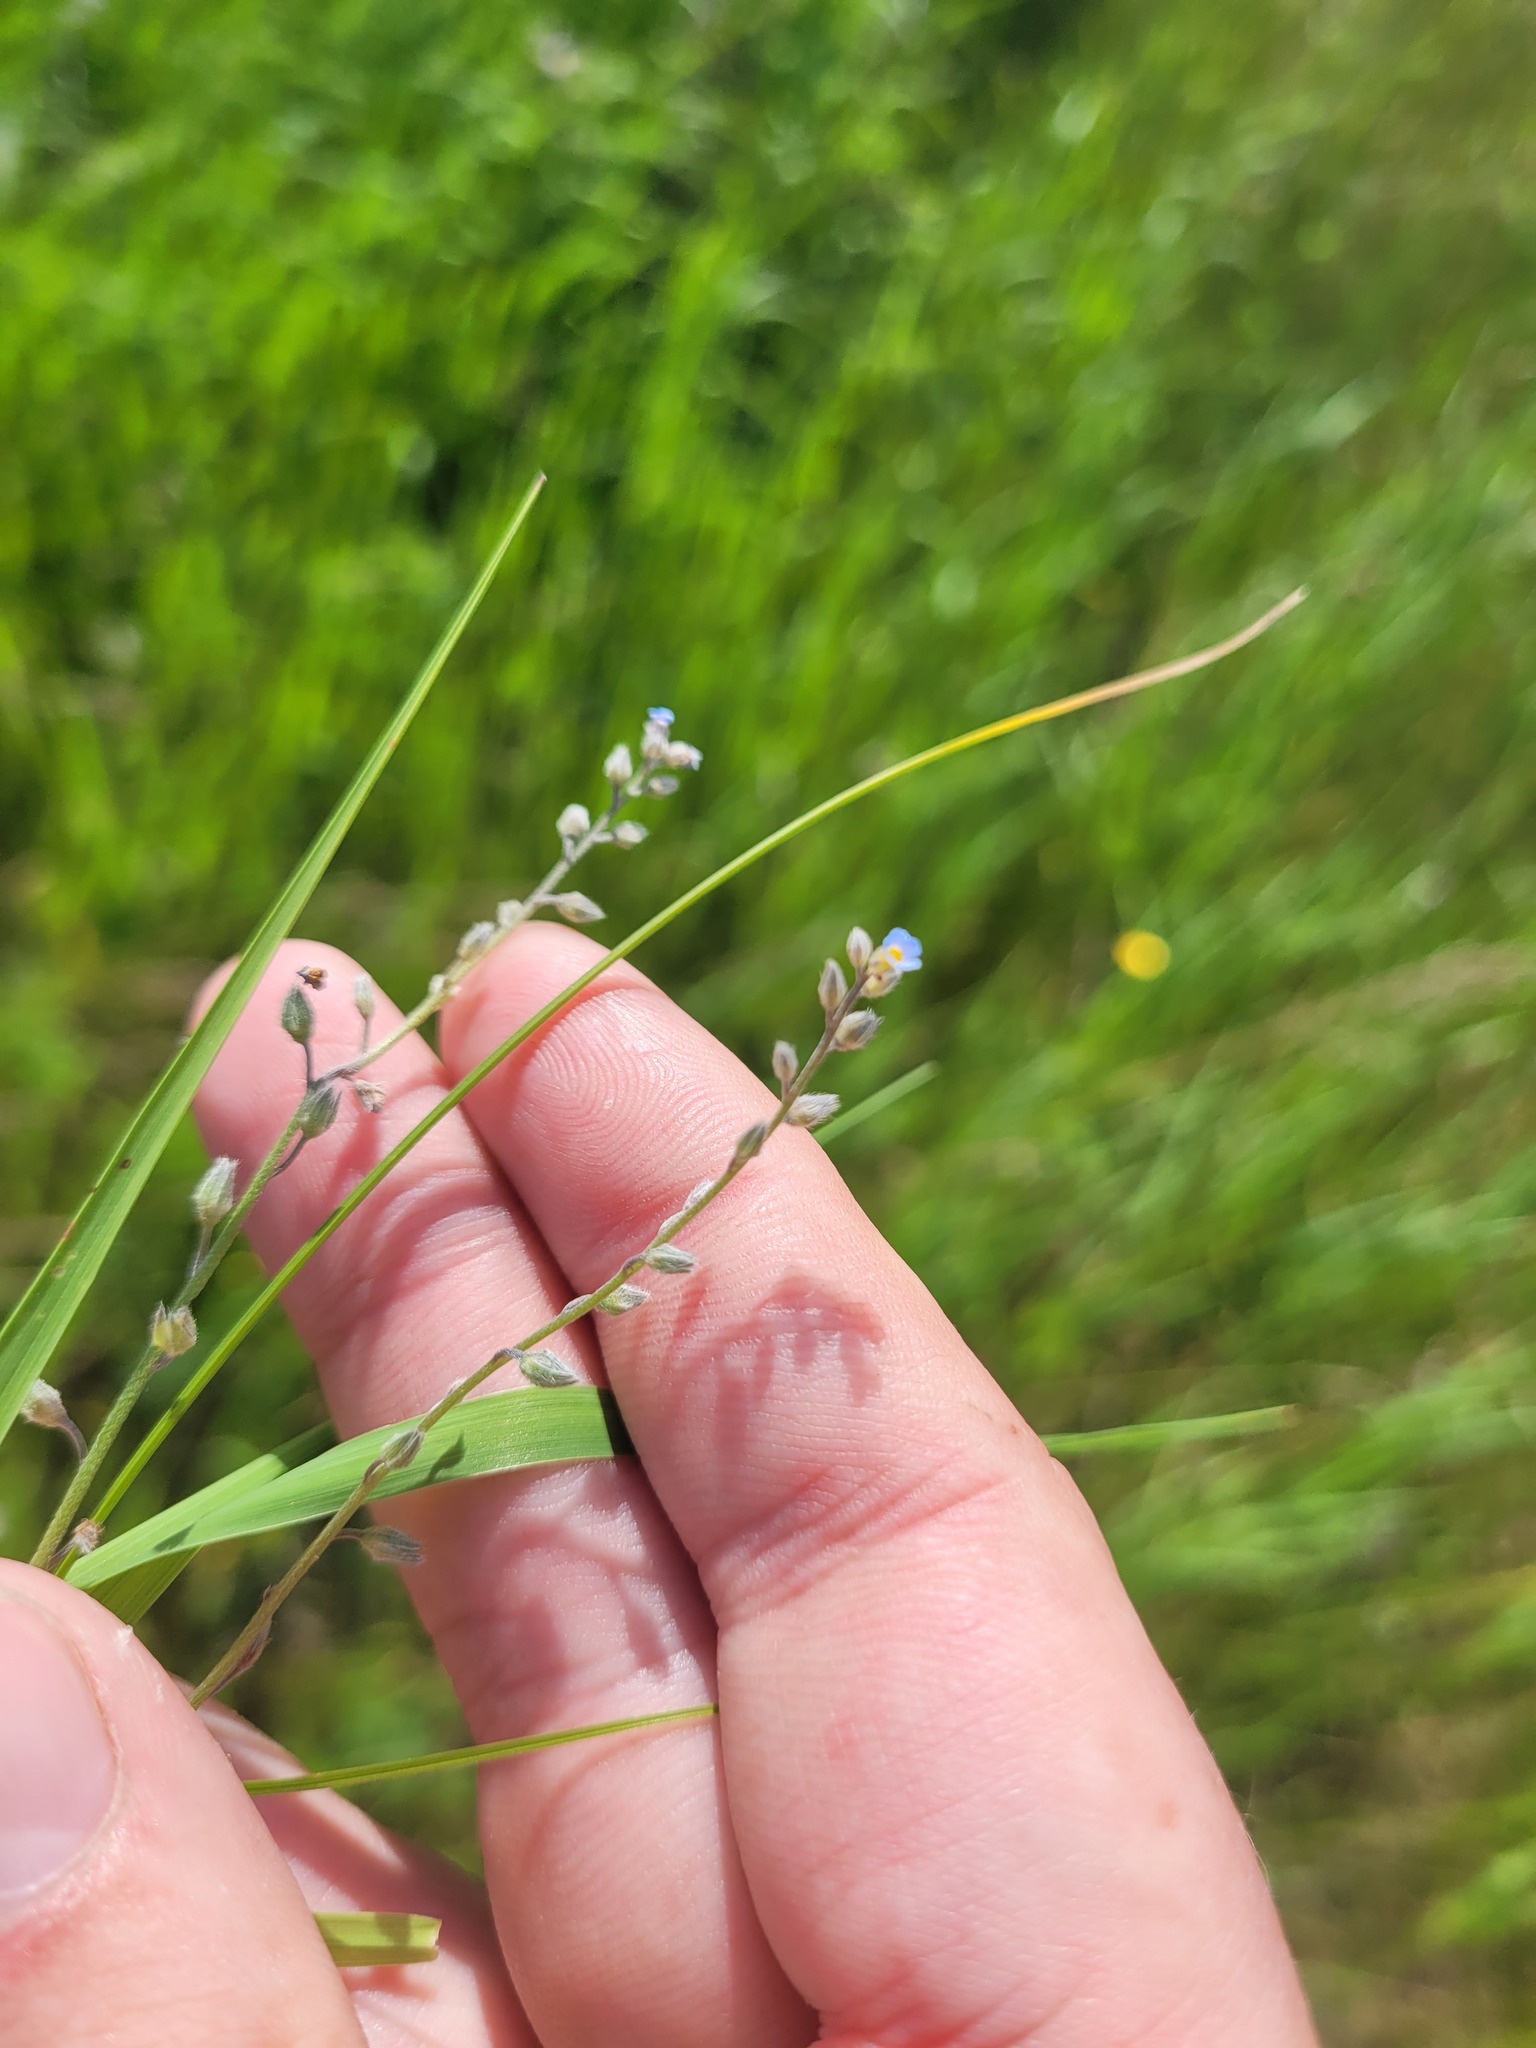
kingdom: Plantae
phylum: Tracheophyta
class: Magnoliopsida
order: Boraginales
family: Boraginaceae
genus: Myosotis
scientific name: Myosotis arvensis
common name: Field forget-me-not
